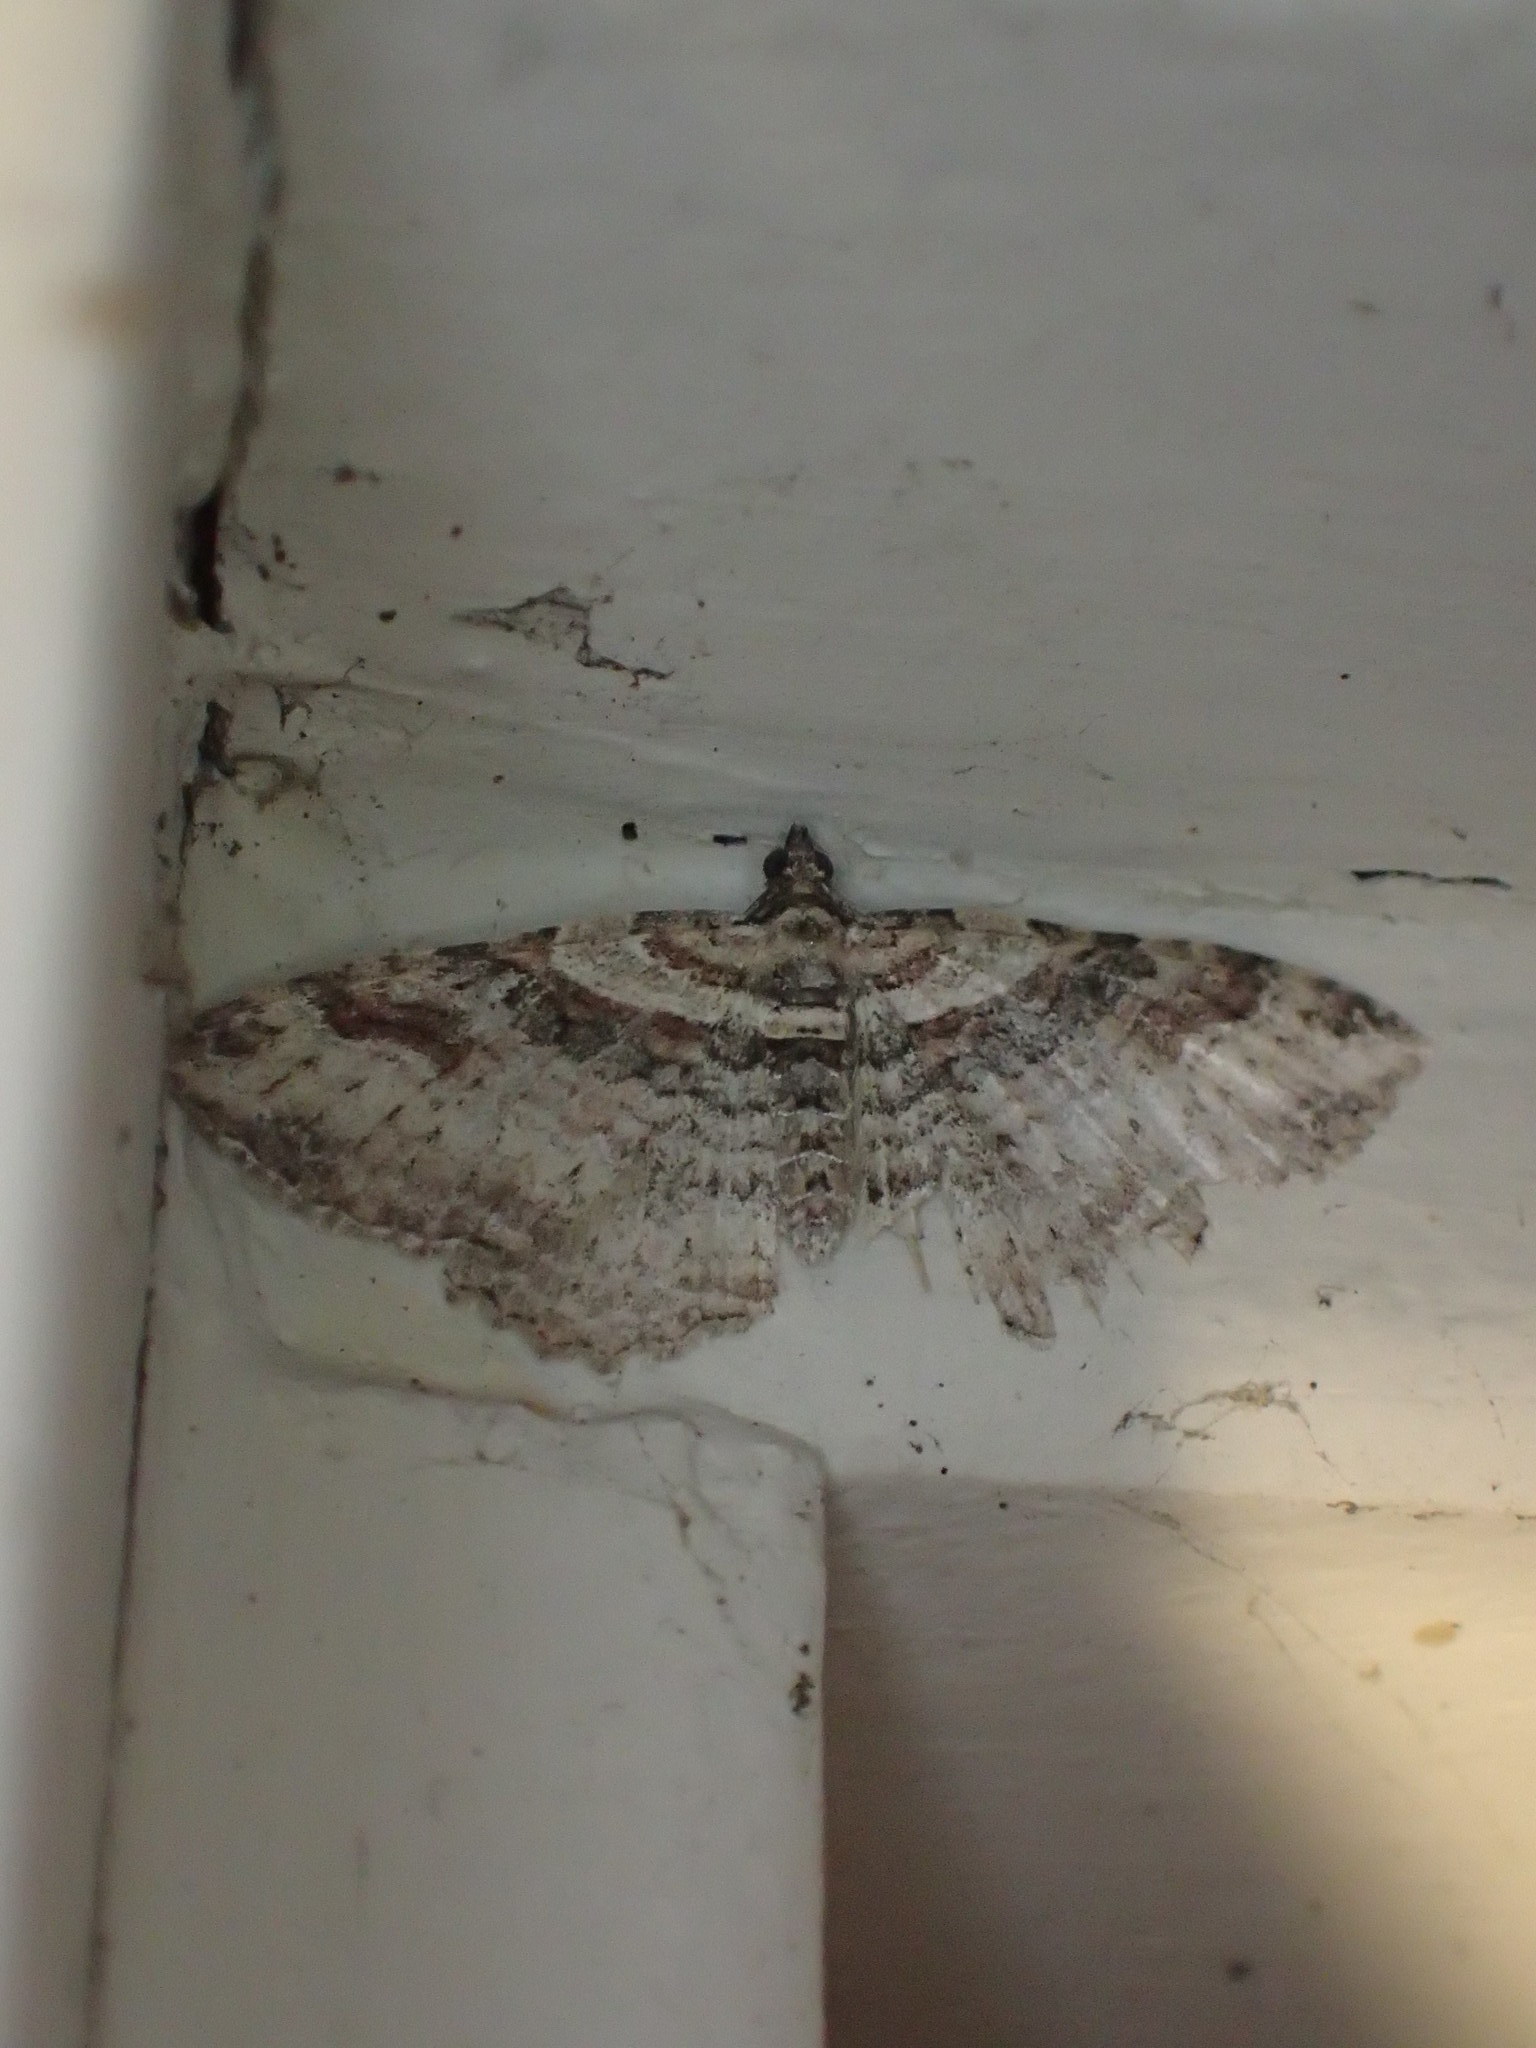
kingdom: Animalia
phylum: Arthropoda
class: Insecta
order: Lepidoptera
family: Geometridae
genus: Costaconvexa
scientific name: Costaconvexa centrostrigaria
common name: Bent-line carpet
